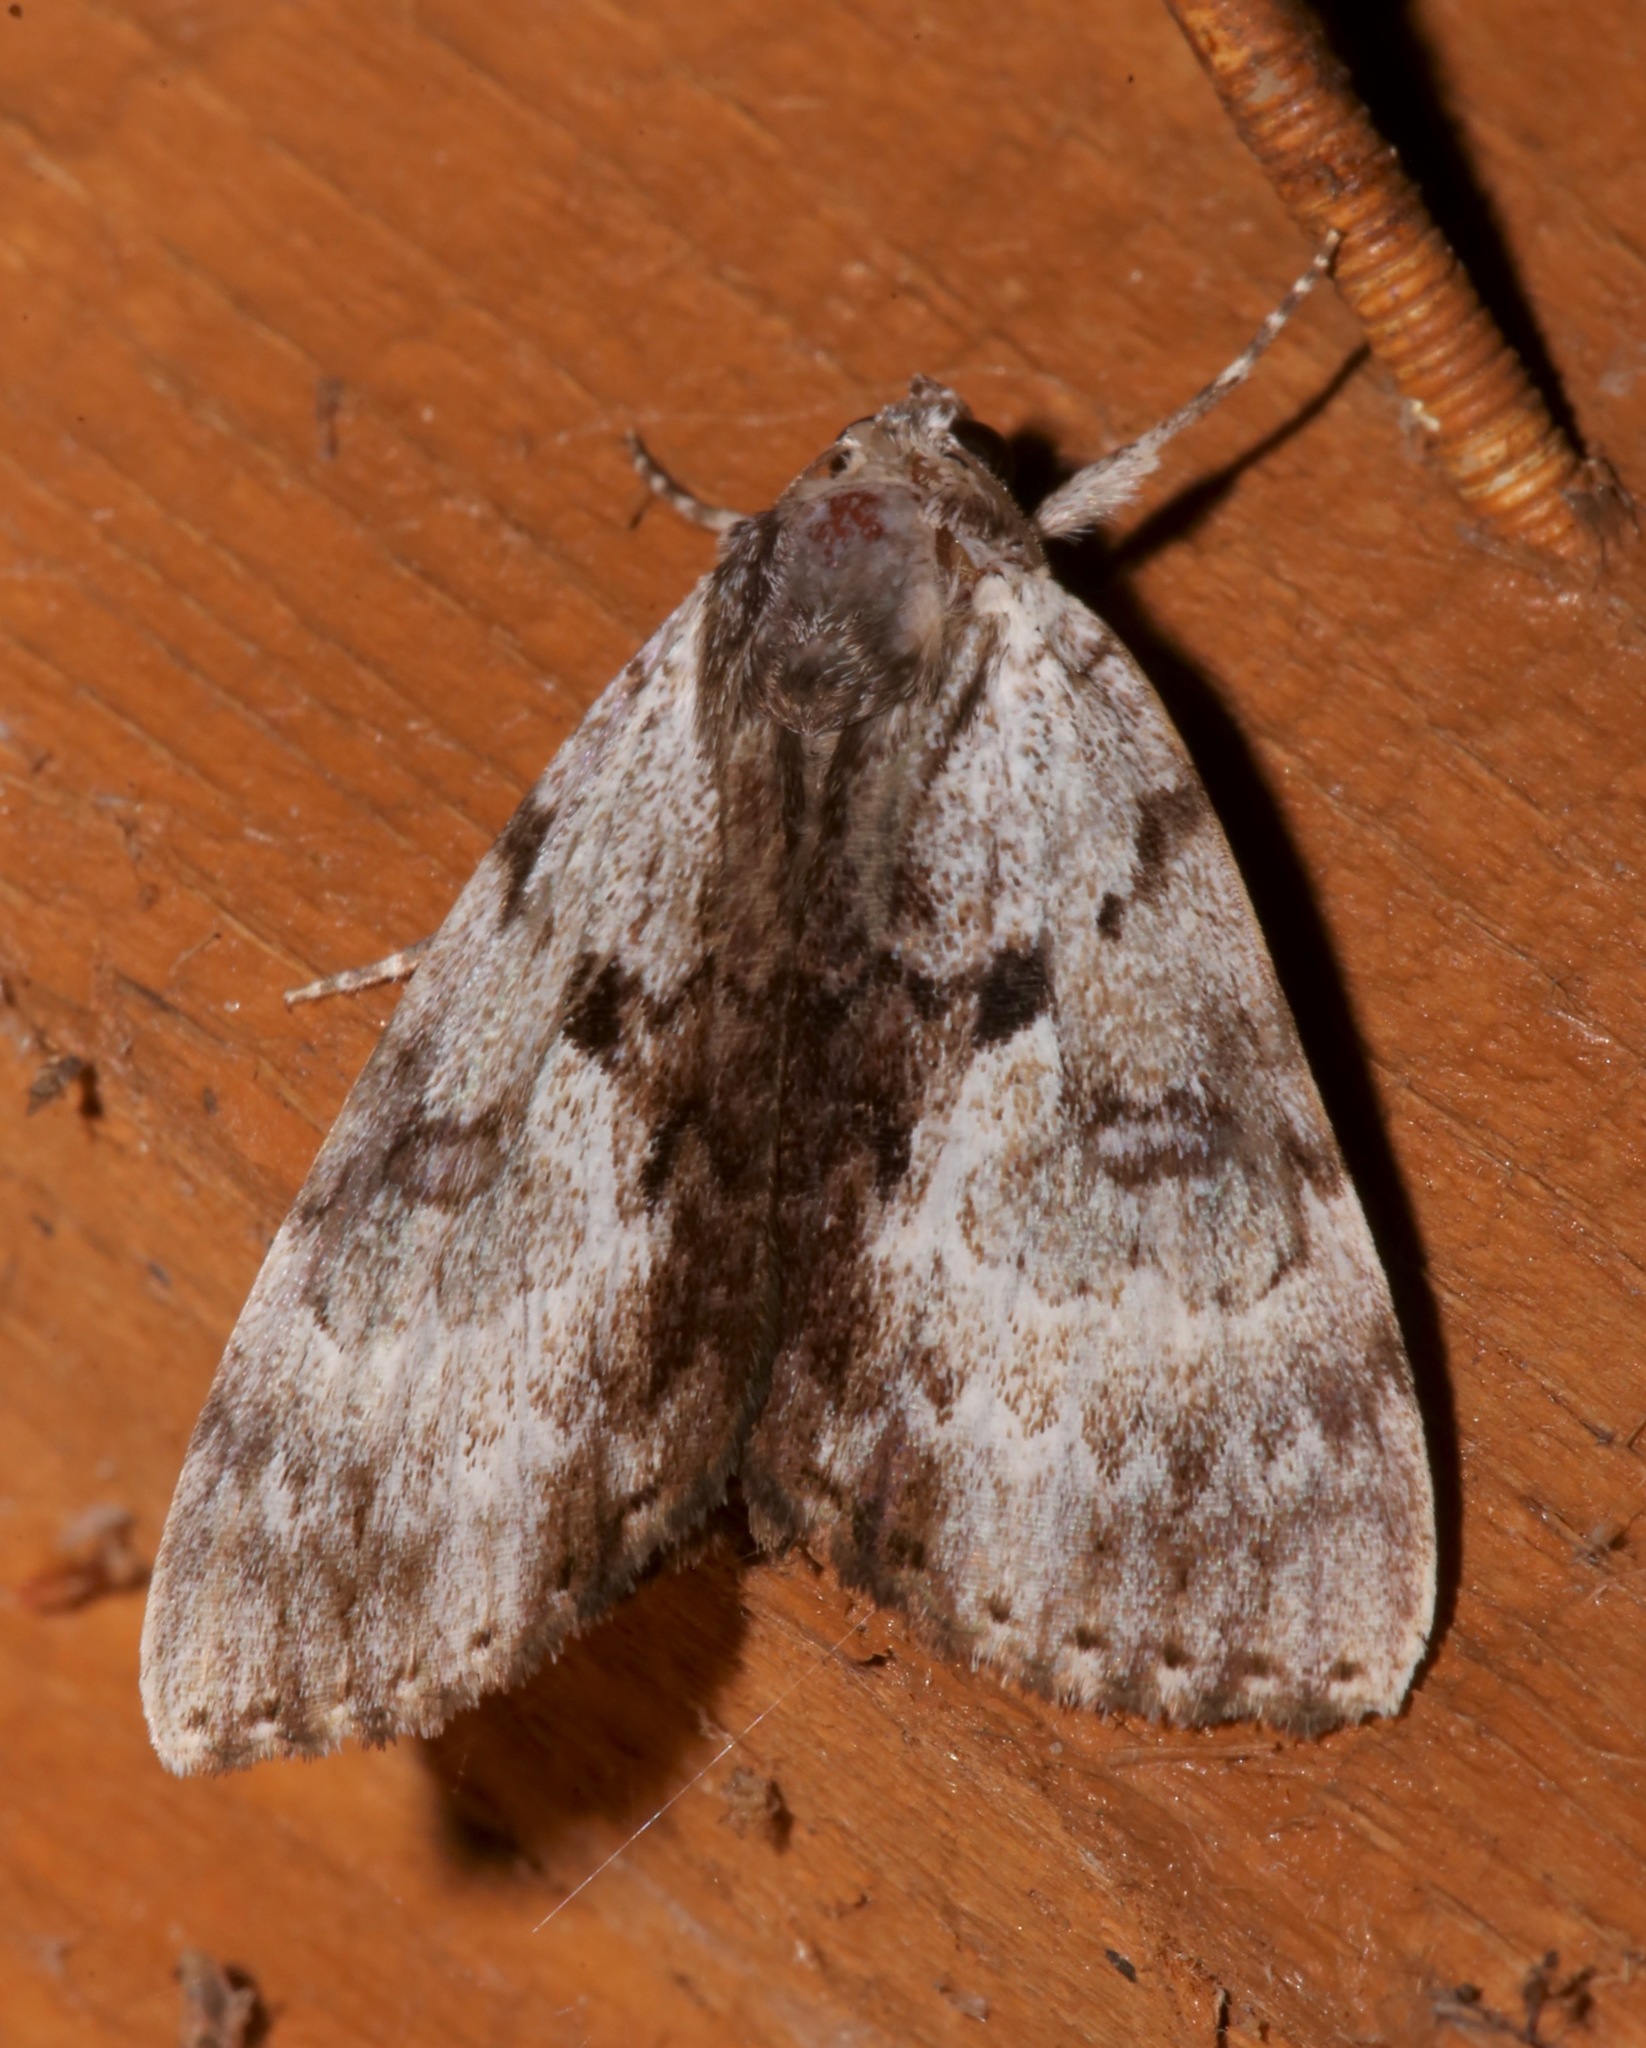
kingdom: Animalia
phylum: Arthropoda
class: Insecta
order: Lepidoptera
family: Erebidae
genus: Catocala
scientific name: Catocala andromedae
